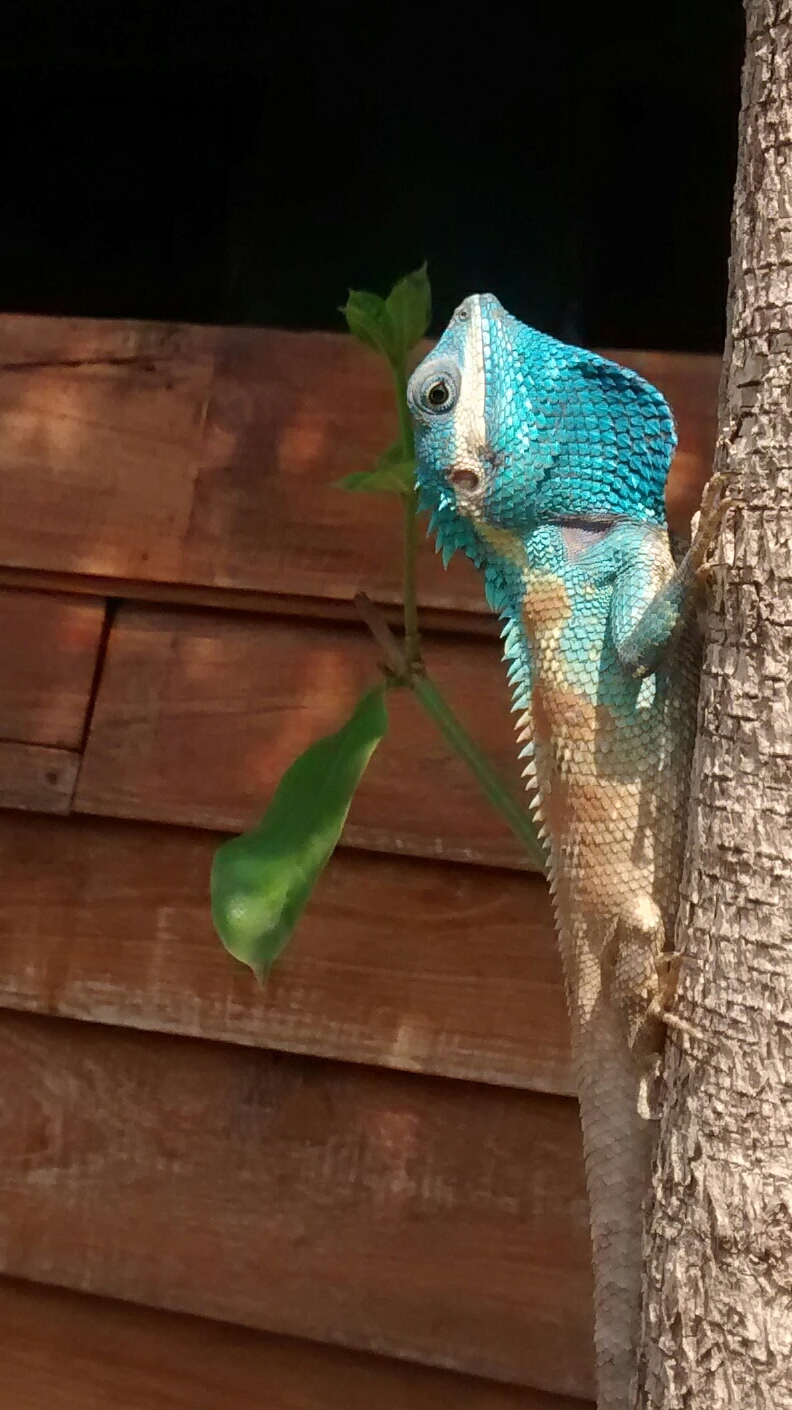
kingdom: Animalia
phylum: Chordata
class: Squamata
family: Agamidae
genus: Calotes
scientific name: Calotes goetzi
